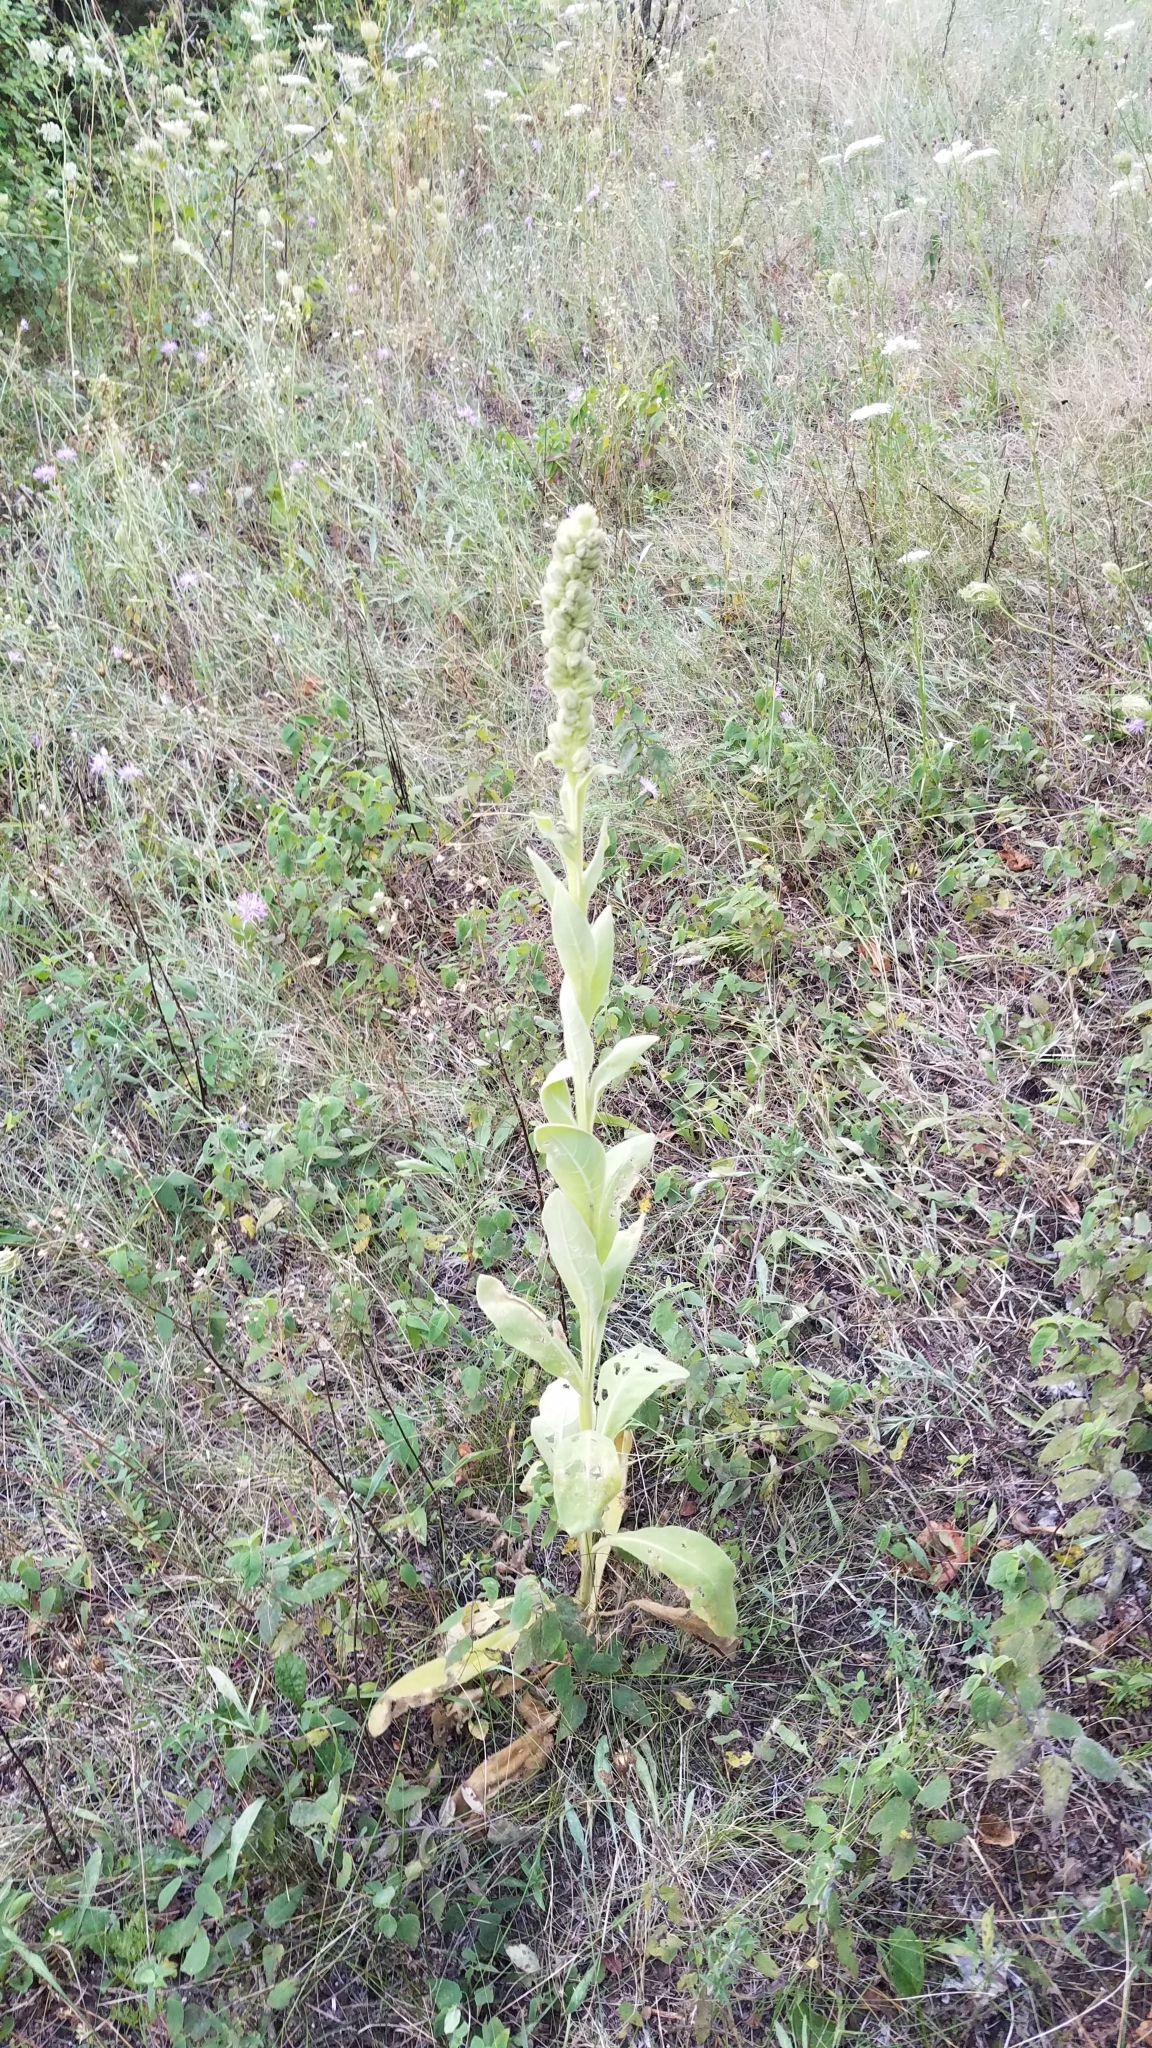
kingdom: Plantae
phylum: Tracheophyta
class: Magnoliopsida
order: Lamiales
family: Scrophulariaceae
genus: Verbascum
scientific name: Verbascum thapsus
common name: Common mullein
